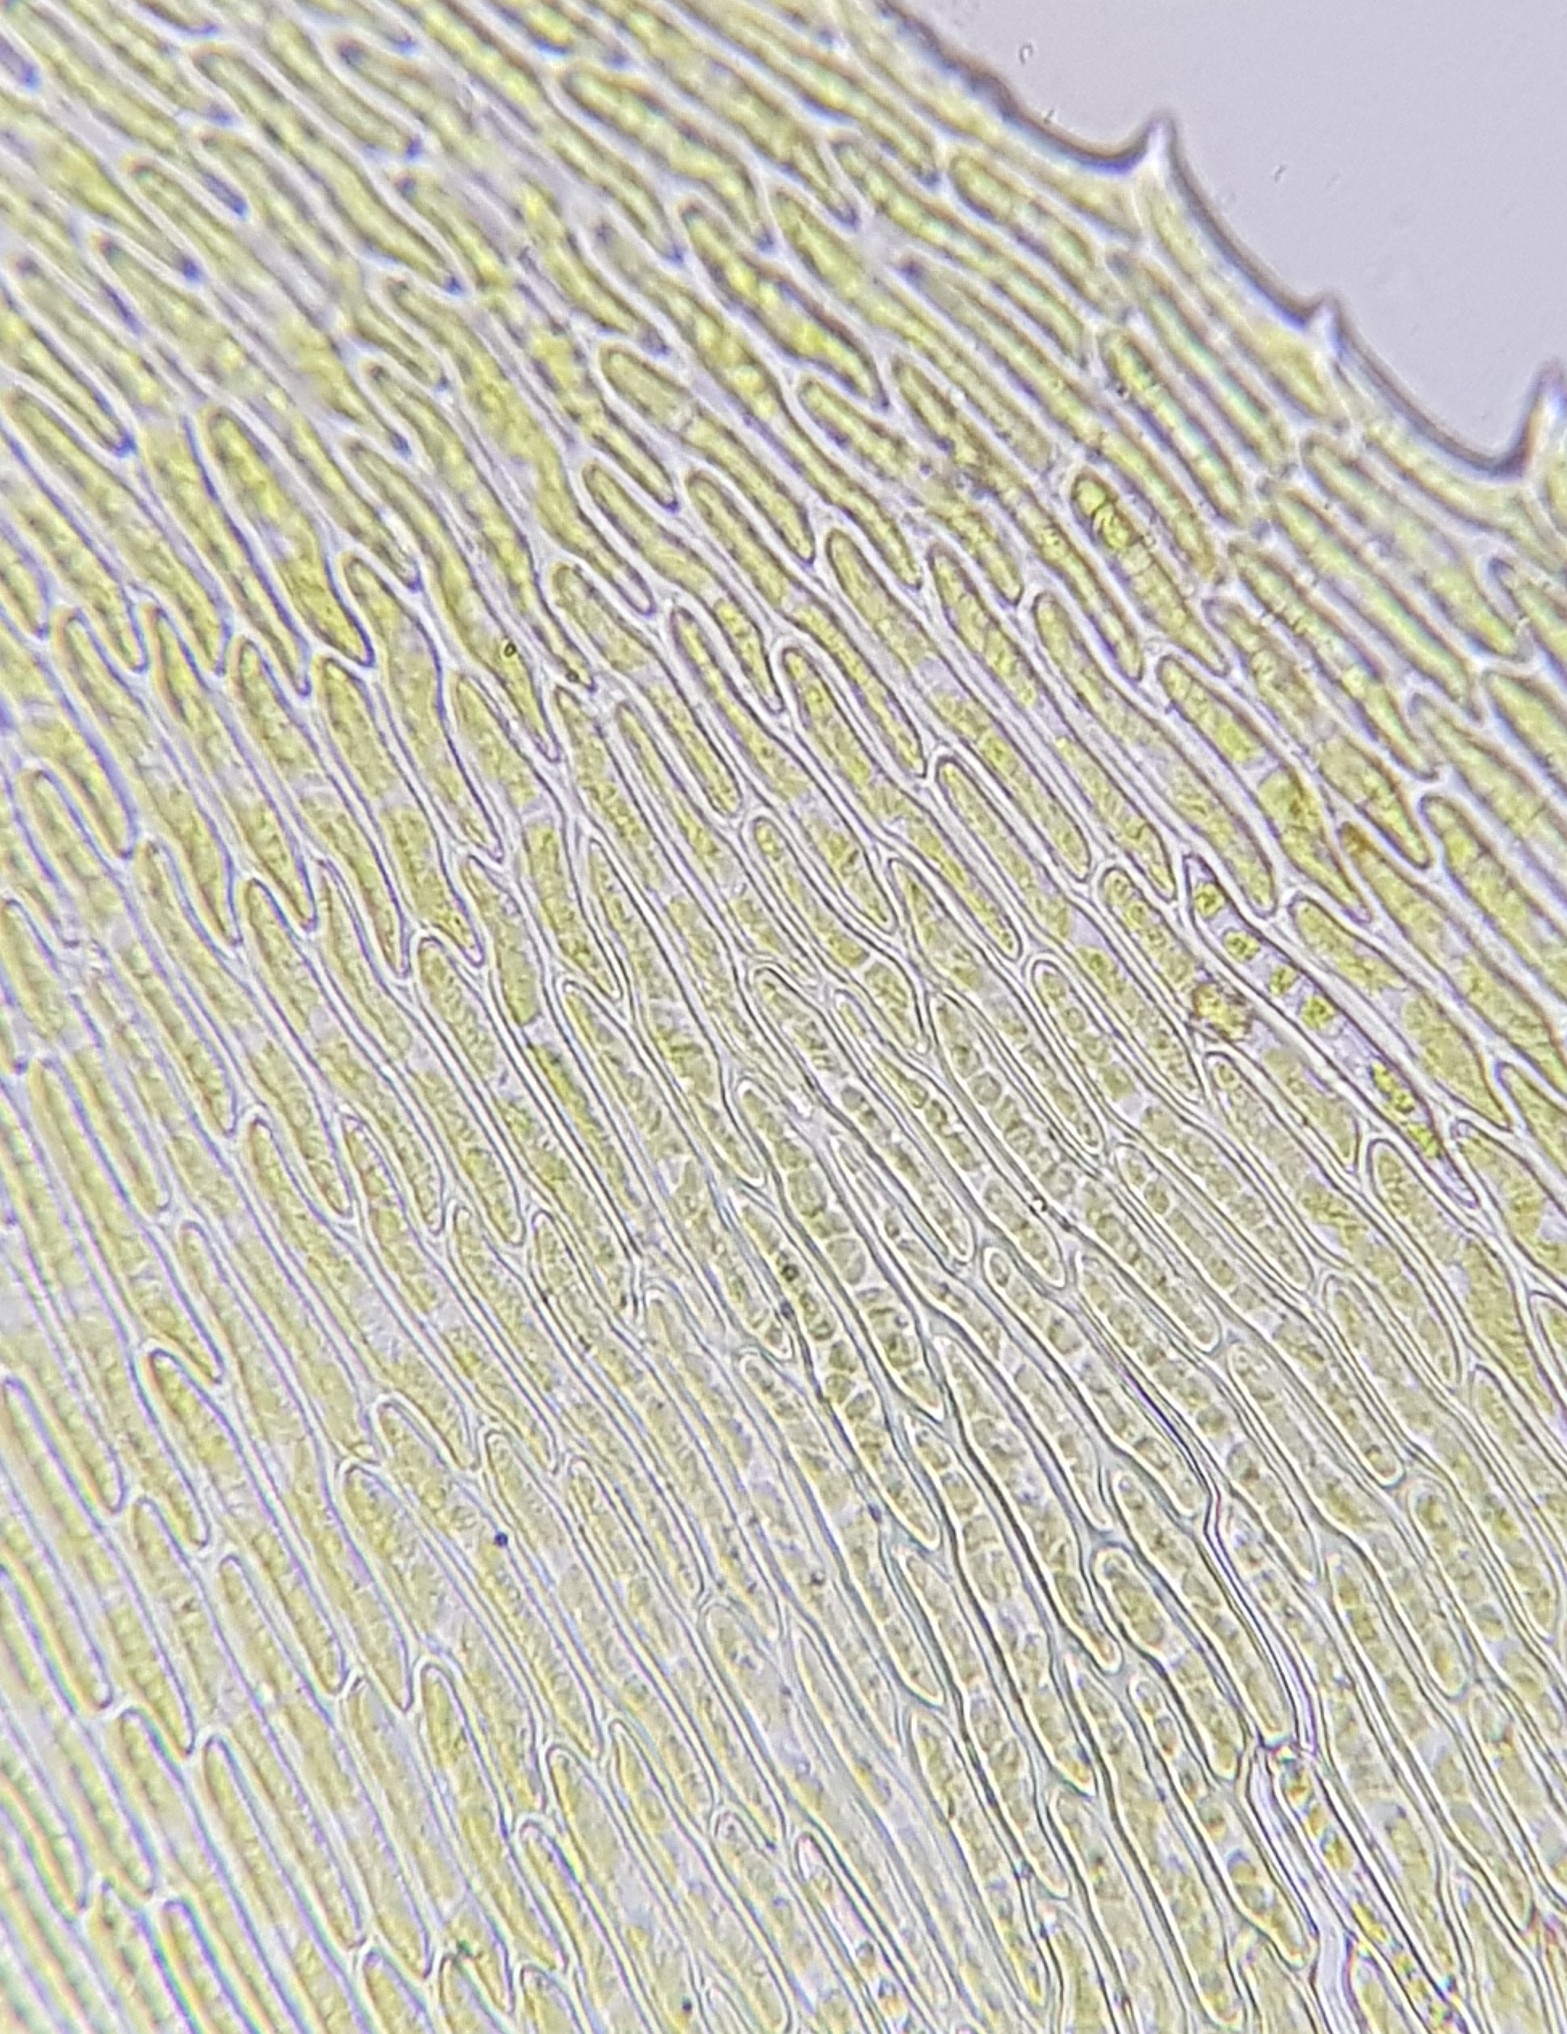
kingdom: Plantae
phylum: Bryophyta
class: Bryopsida
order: Hypnales
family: Brachytheciaceae
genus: Kindbergia
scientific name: Kindbergia praelonga
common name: Slender beaked moss
